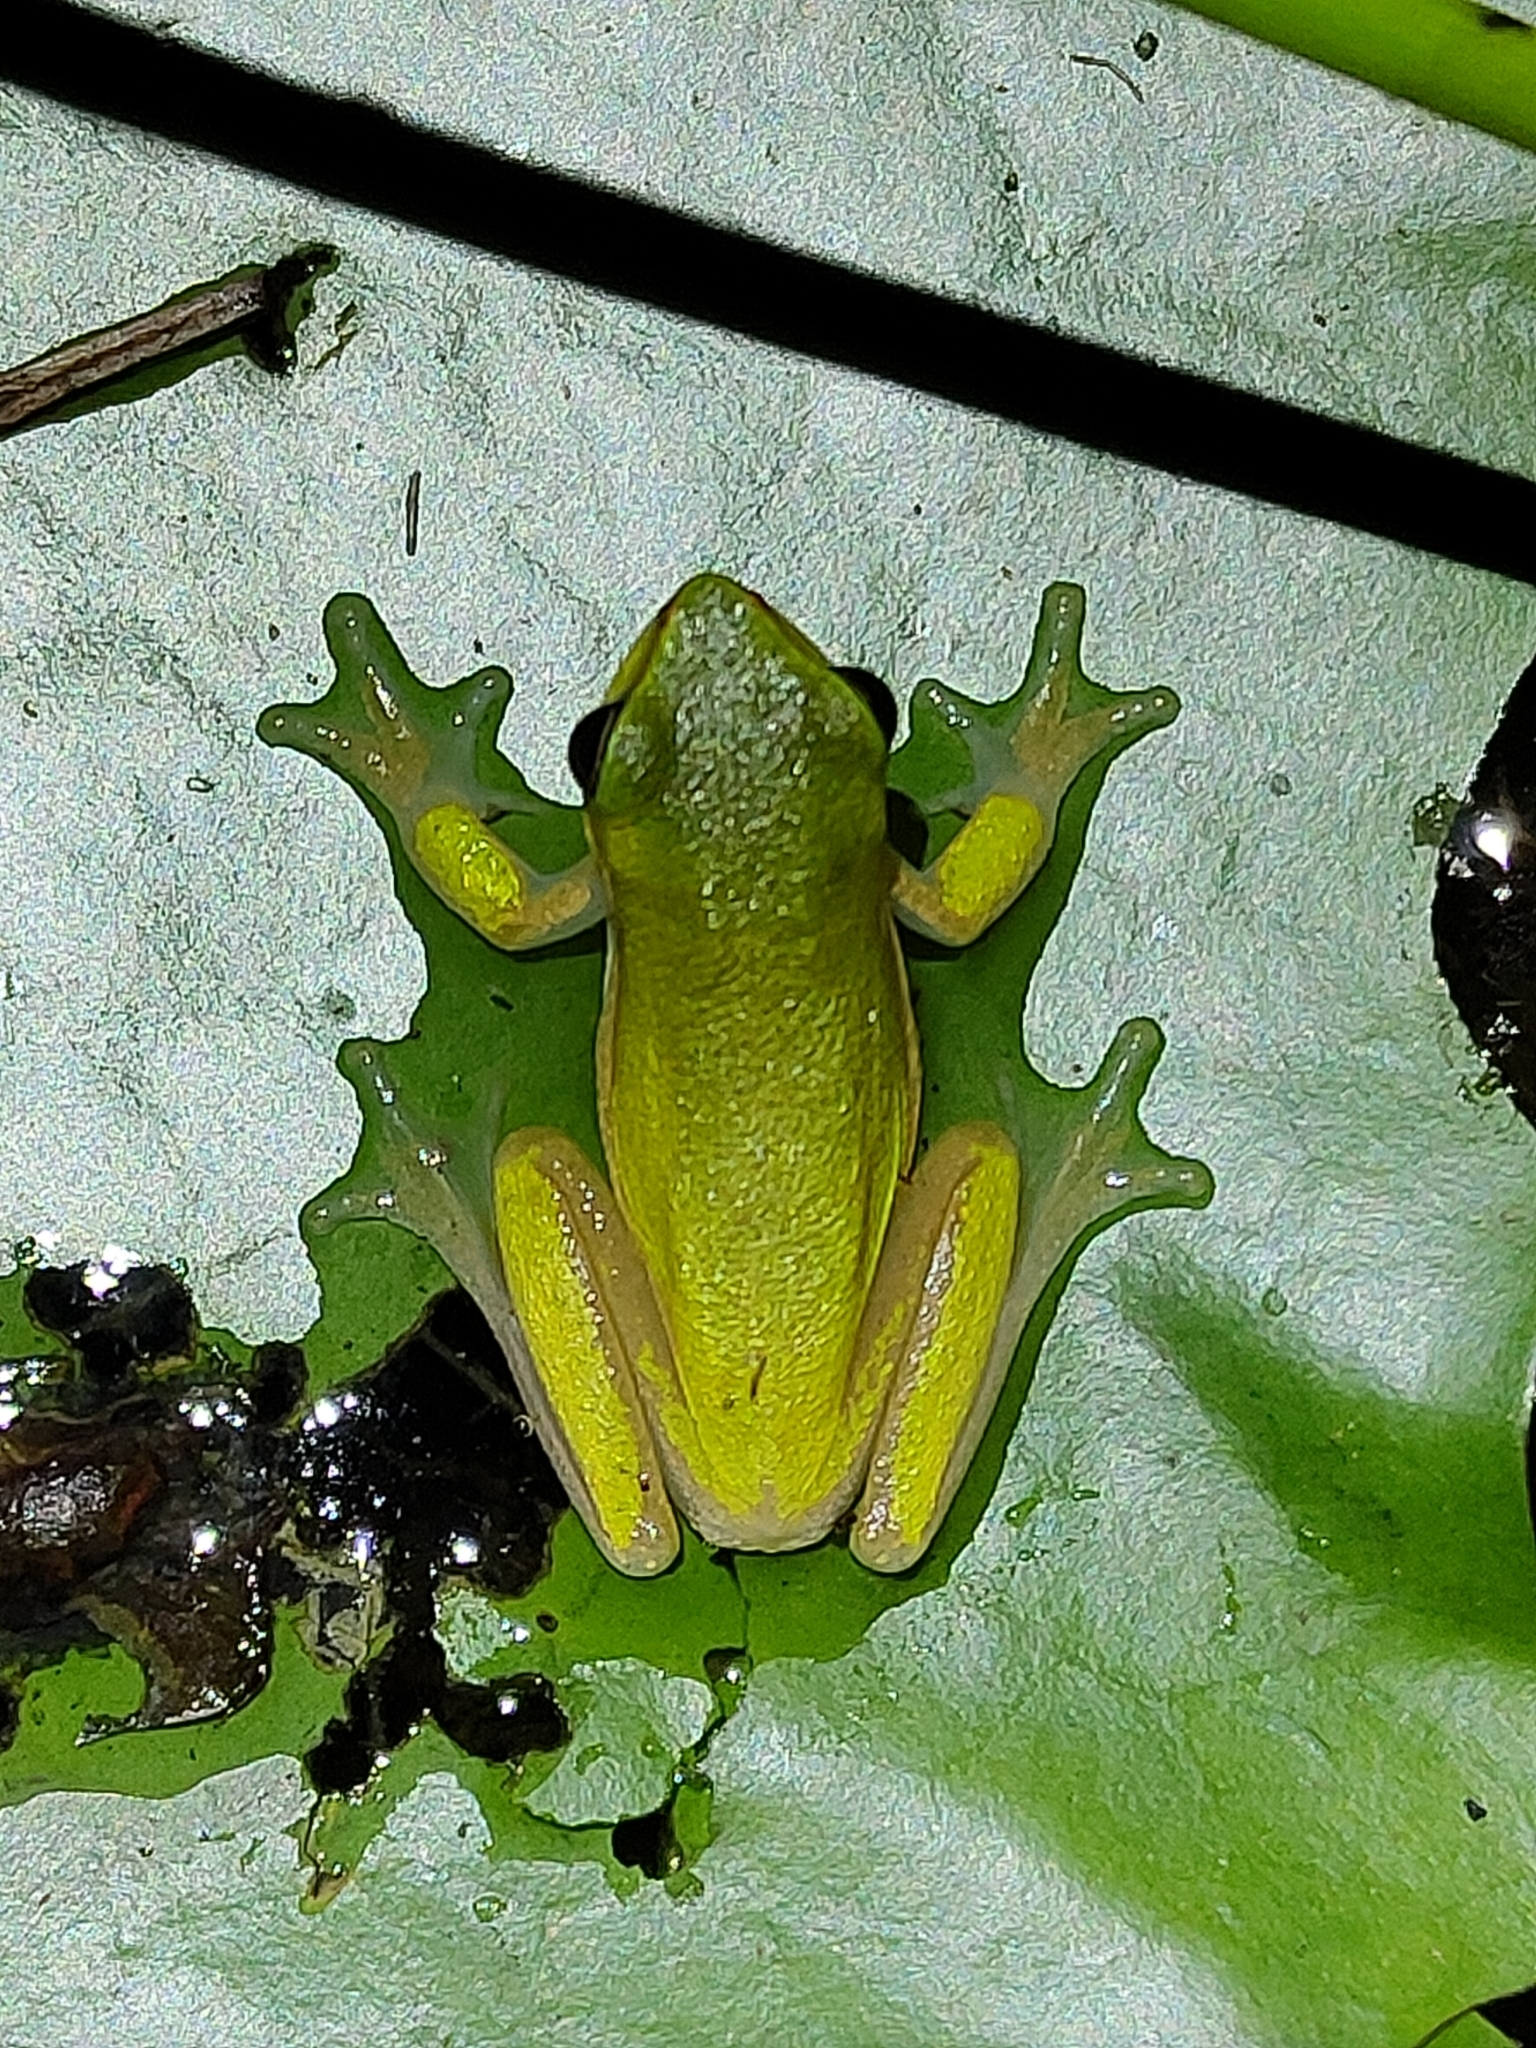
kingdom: Animalia
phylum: Chordata
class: Amphibia
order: Anura
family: Pelodryadidae
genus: Litoria
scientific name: Litoria fallax
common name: Eastern dwarf treefrog
